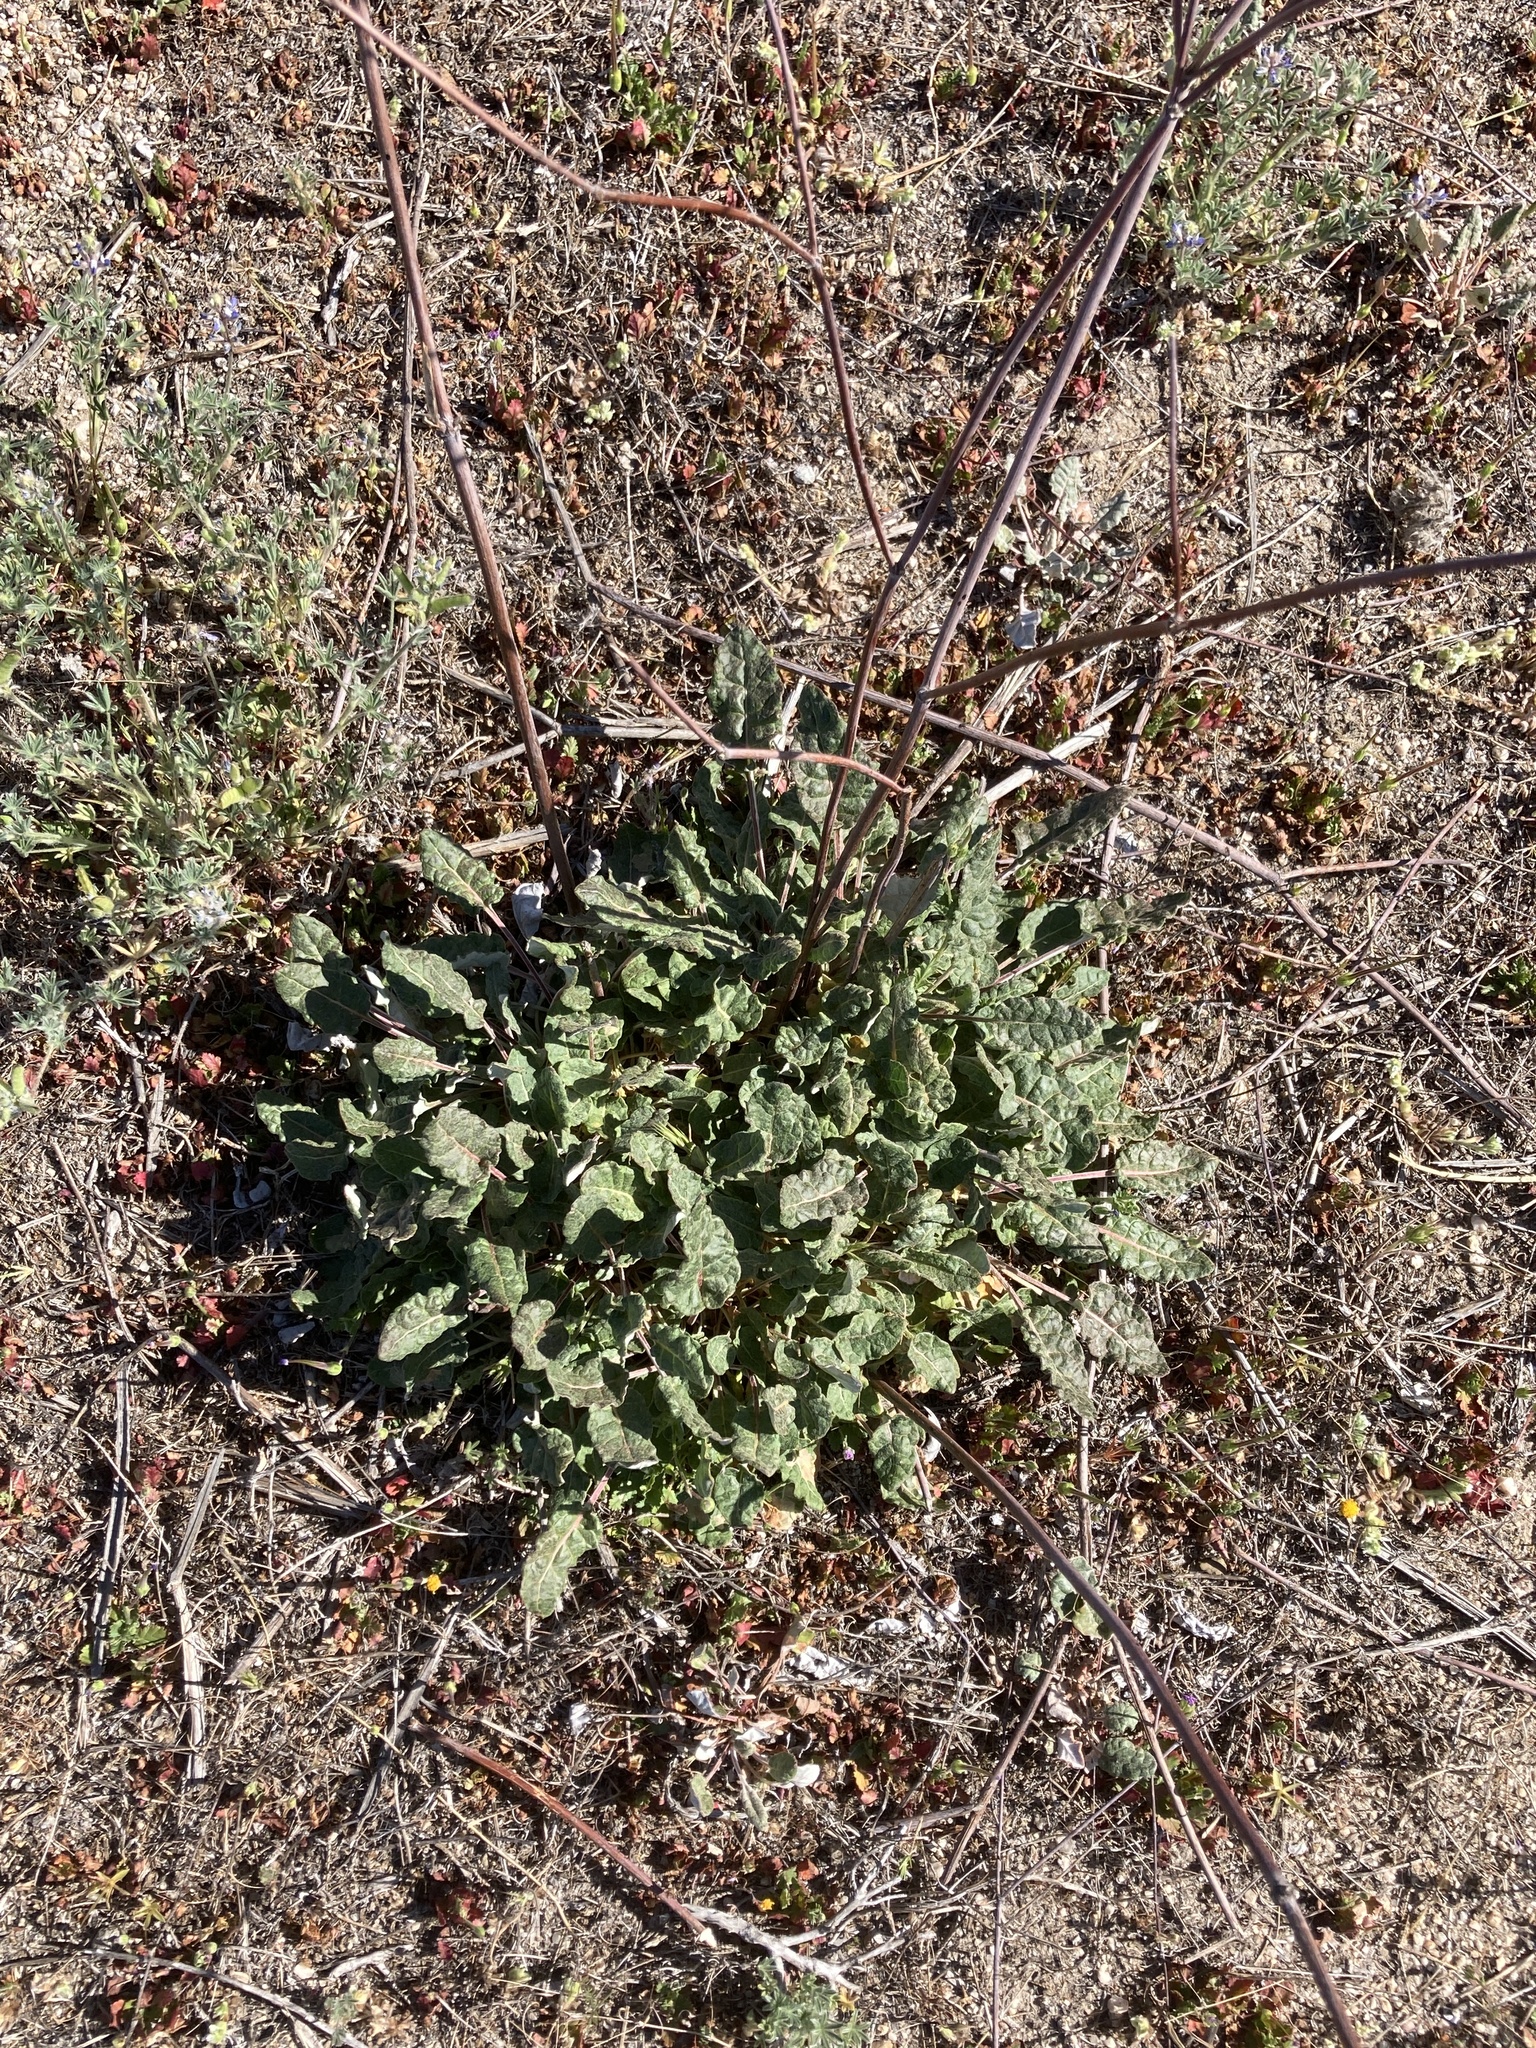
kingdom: Plantae
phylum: Tracheophyta
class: Magnoliopsida
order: Caryophyllales
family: Polygonaceae
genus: Eriogonum
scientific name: Eriogonum nudum
